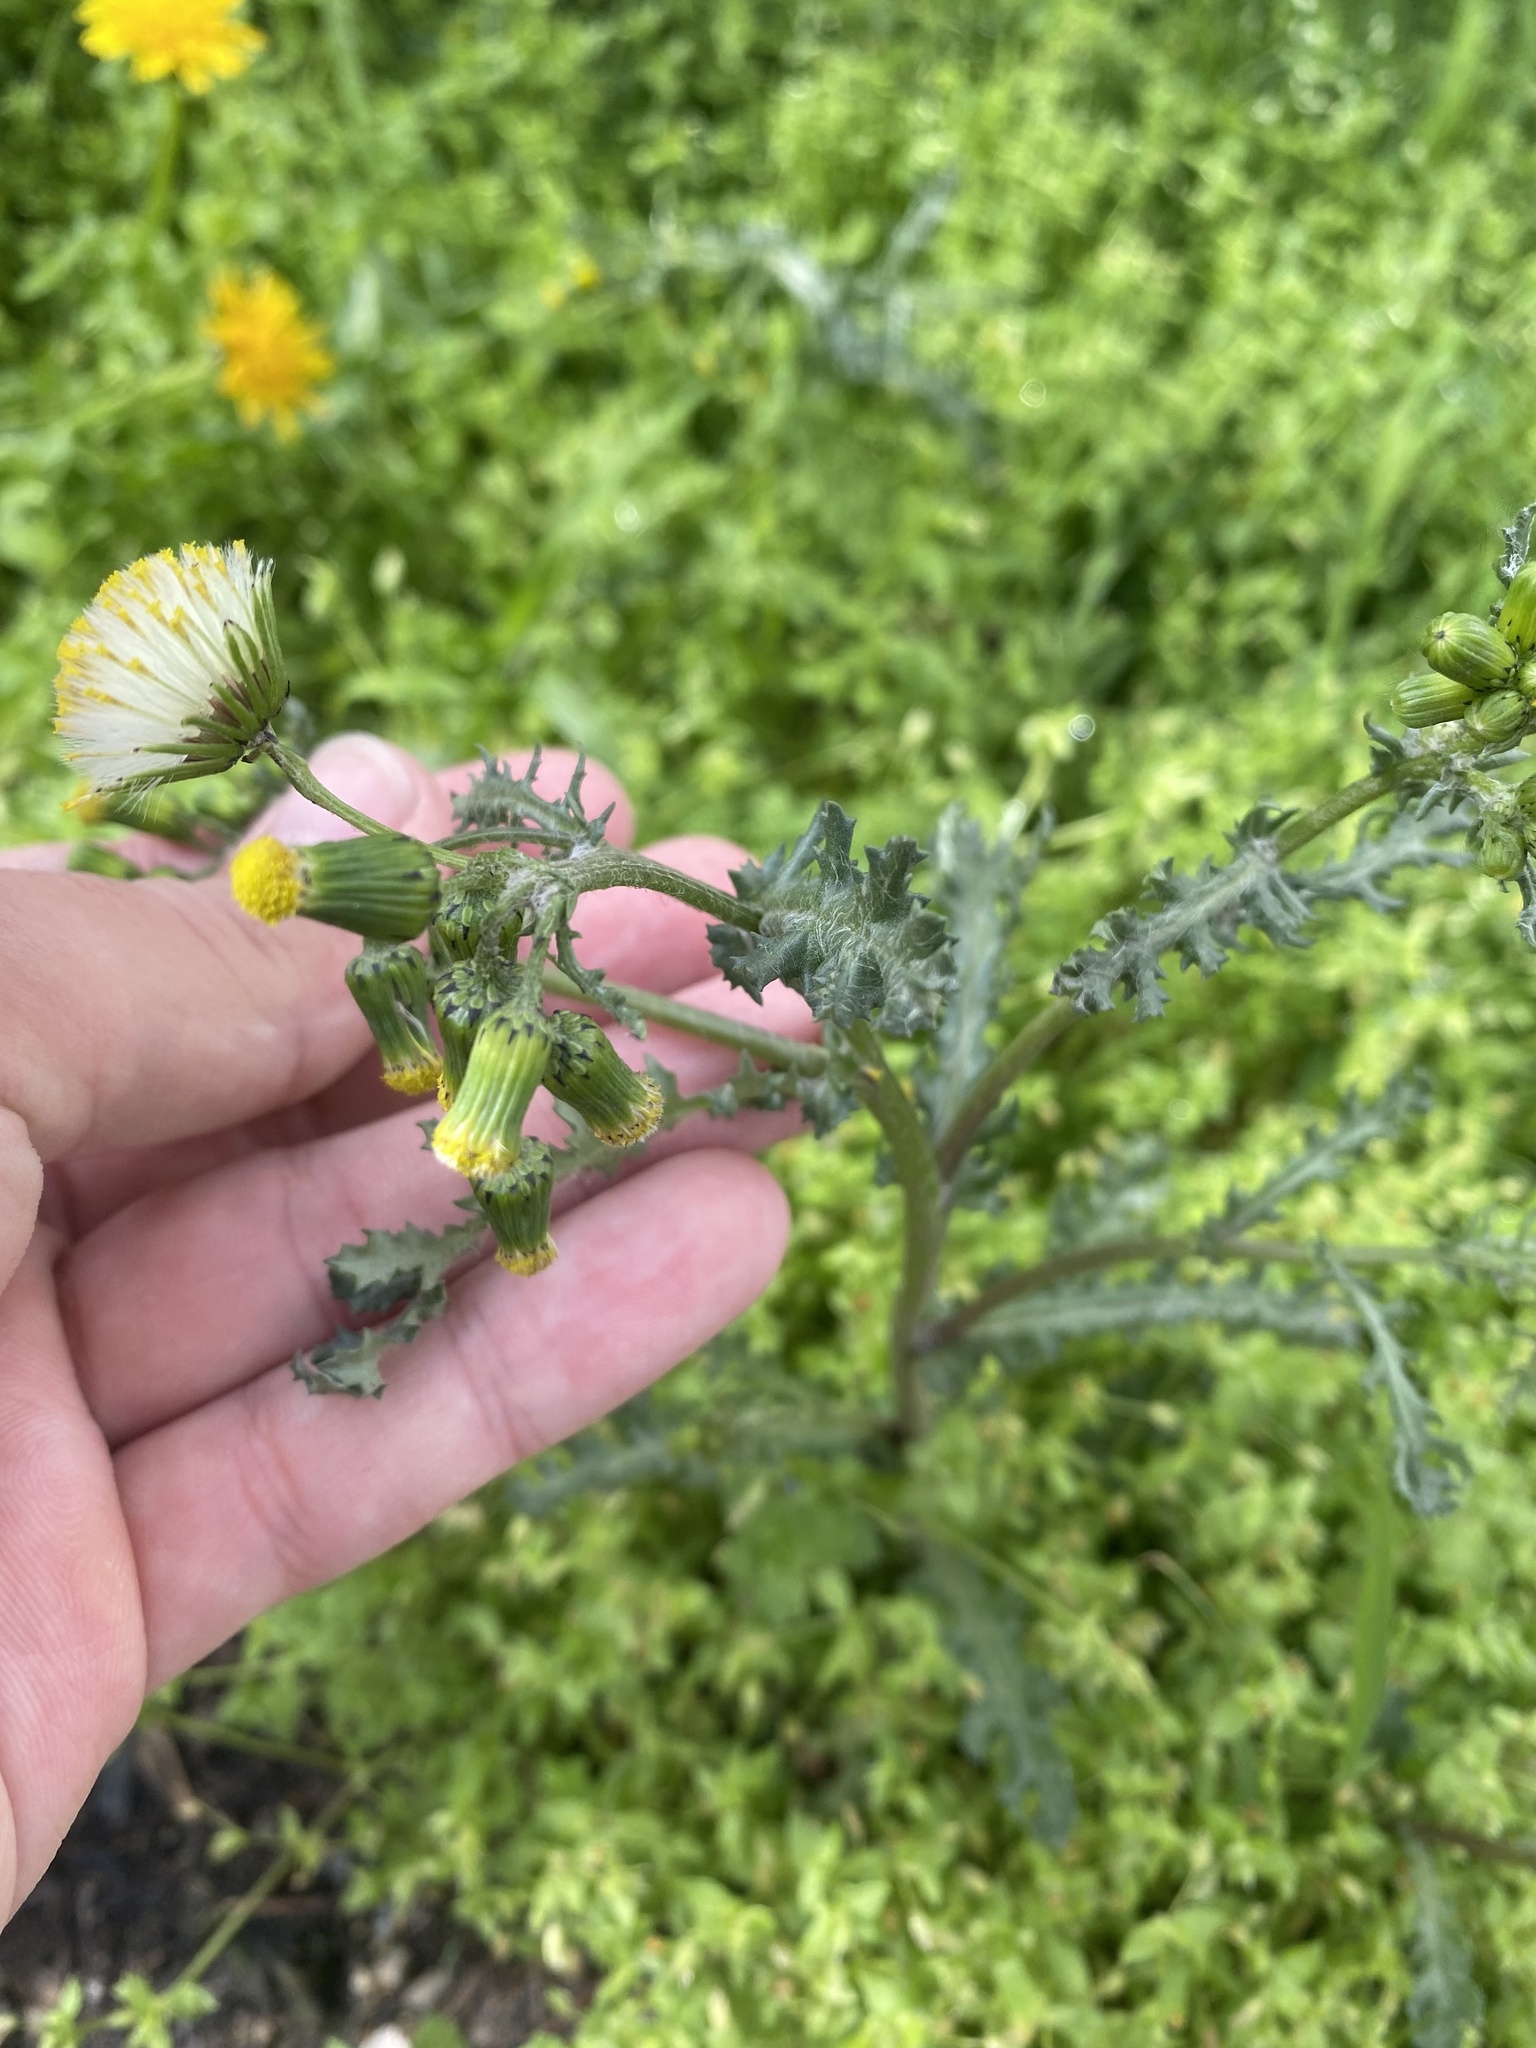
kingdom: Plantae
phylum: Tracheophyta
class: Magnoliopsida
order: Asterales
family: Asteraceae
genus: Senecio
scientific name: Senecio vulgaris
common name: Old-man-in-the-spring
